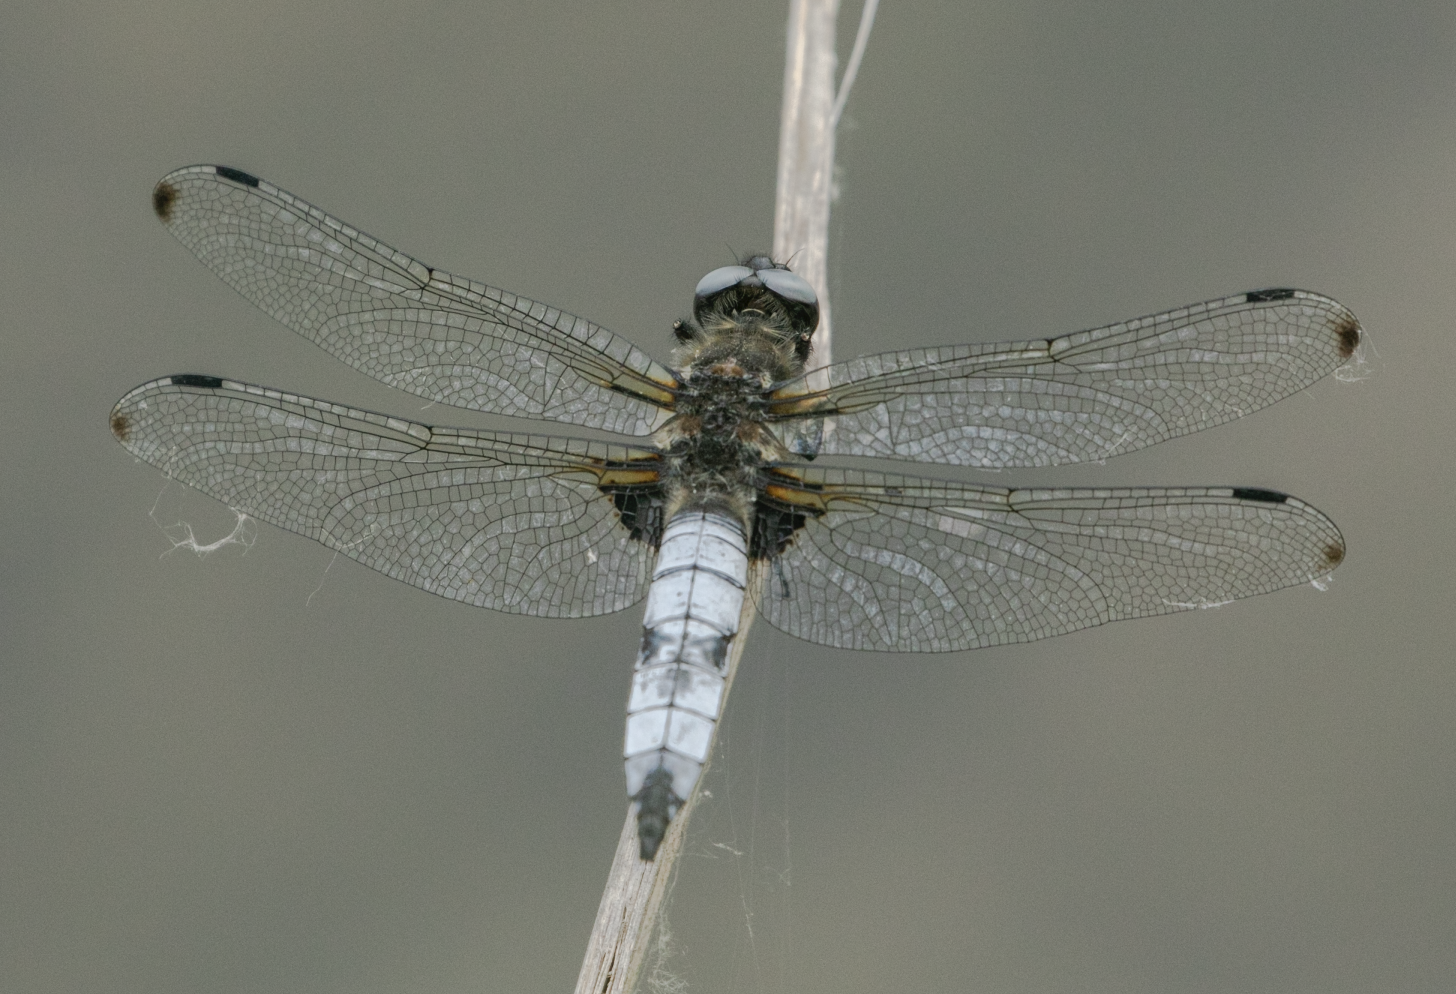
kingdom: Animalia
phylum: Arthropoda
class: Insecta
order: Odonata
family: Libellulidae
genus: Libellula
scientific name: Libellula fulva
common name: Blue chaser
